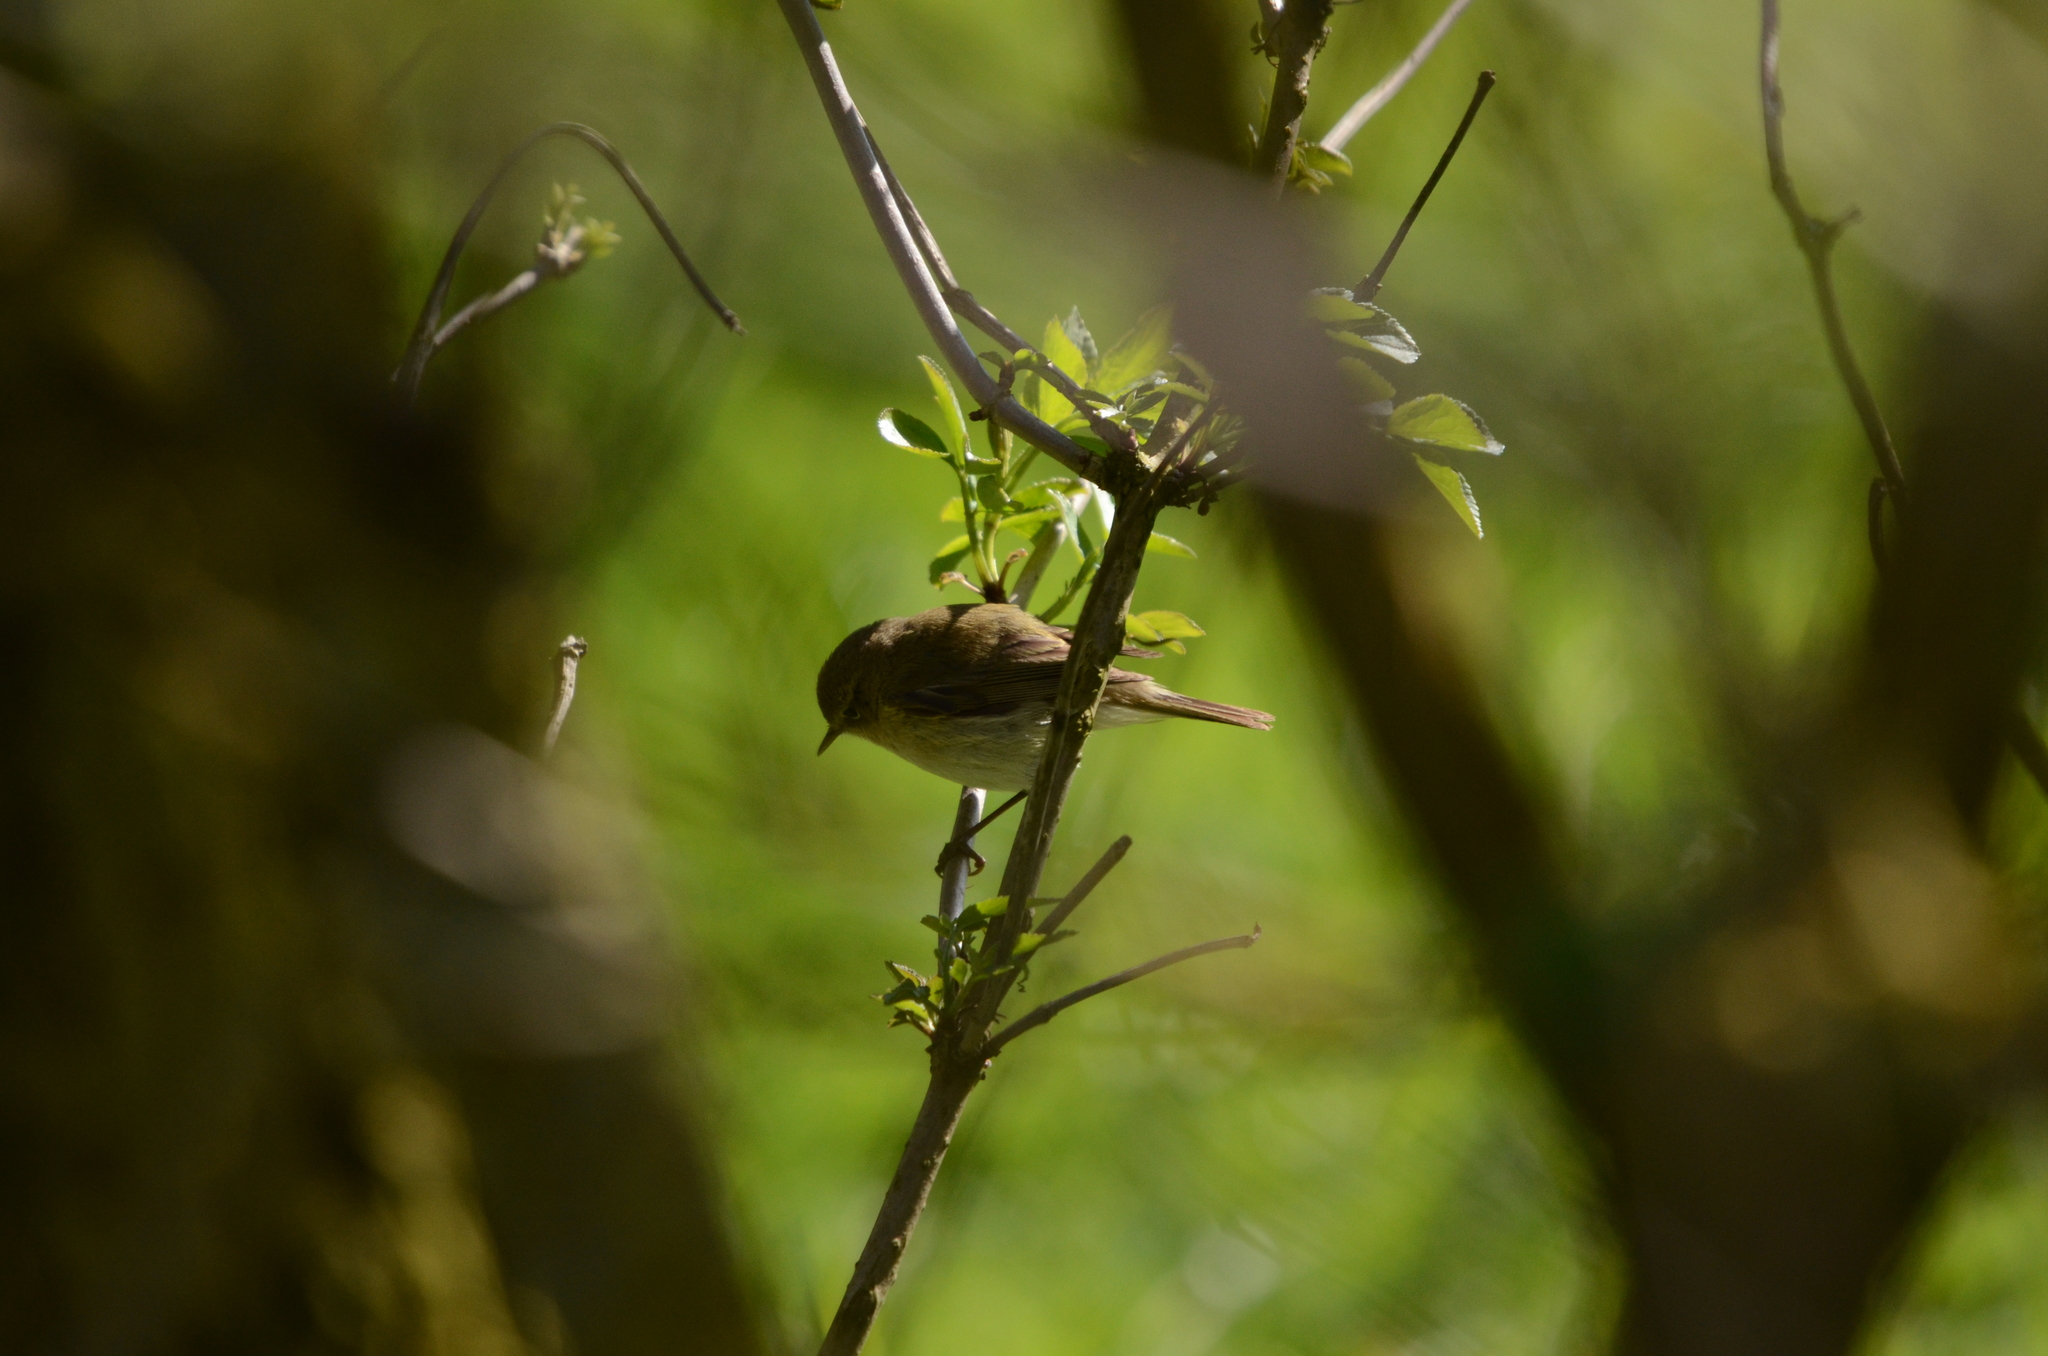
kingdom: Animalia
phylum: Chordata
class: Aves
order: Passeriformes
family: Phylloscopidae
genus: Phylloscopus
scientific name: Phylloscopus collybita
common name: Common chiffchaff
